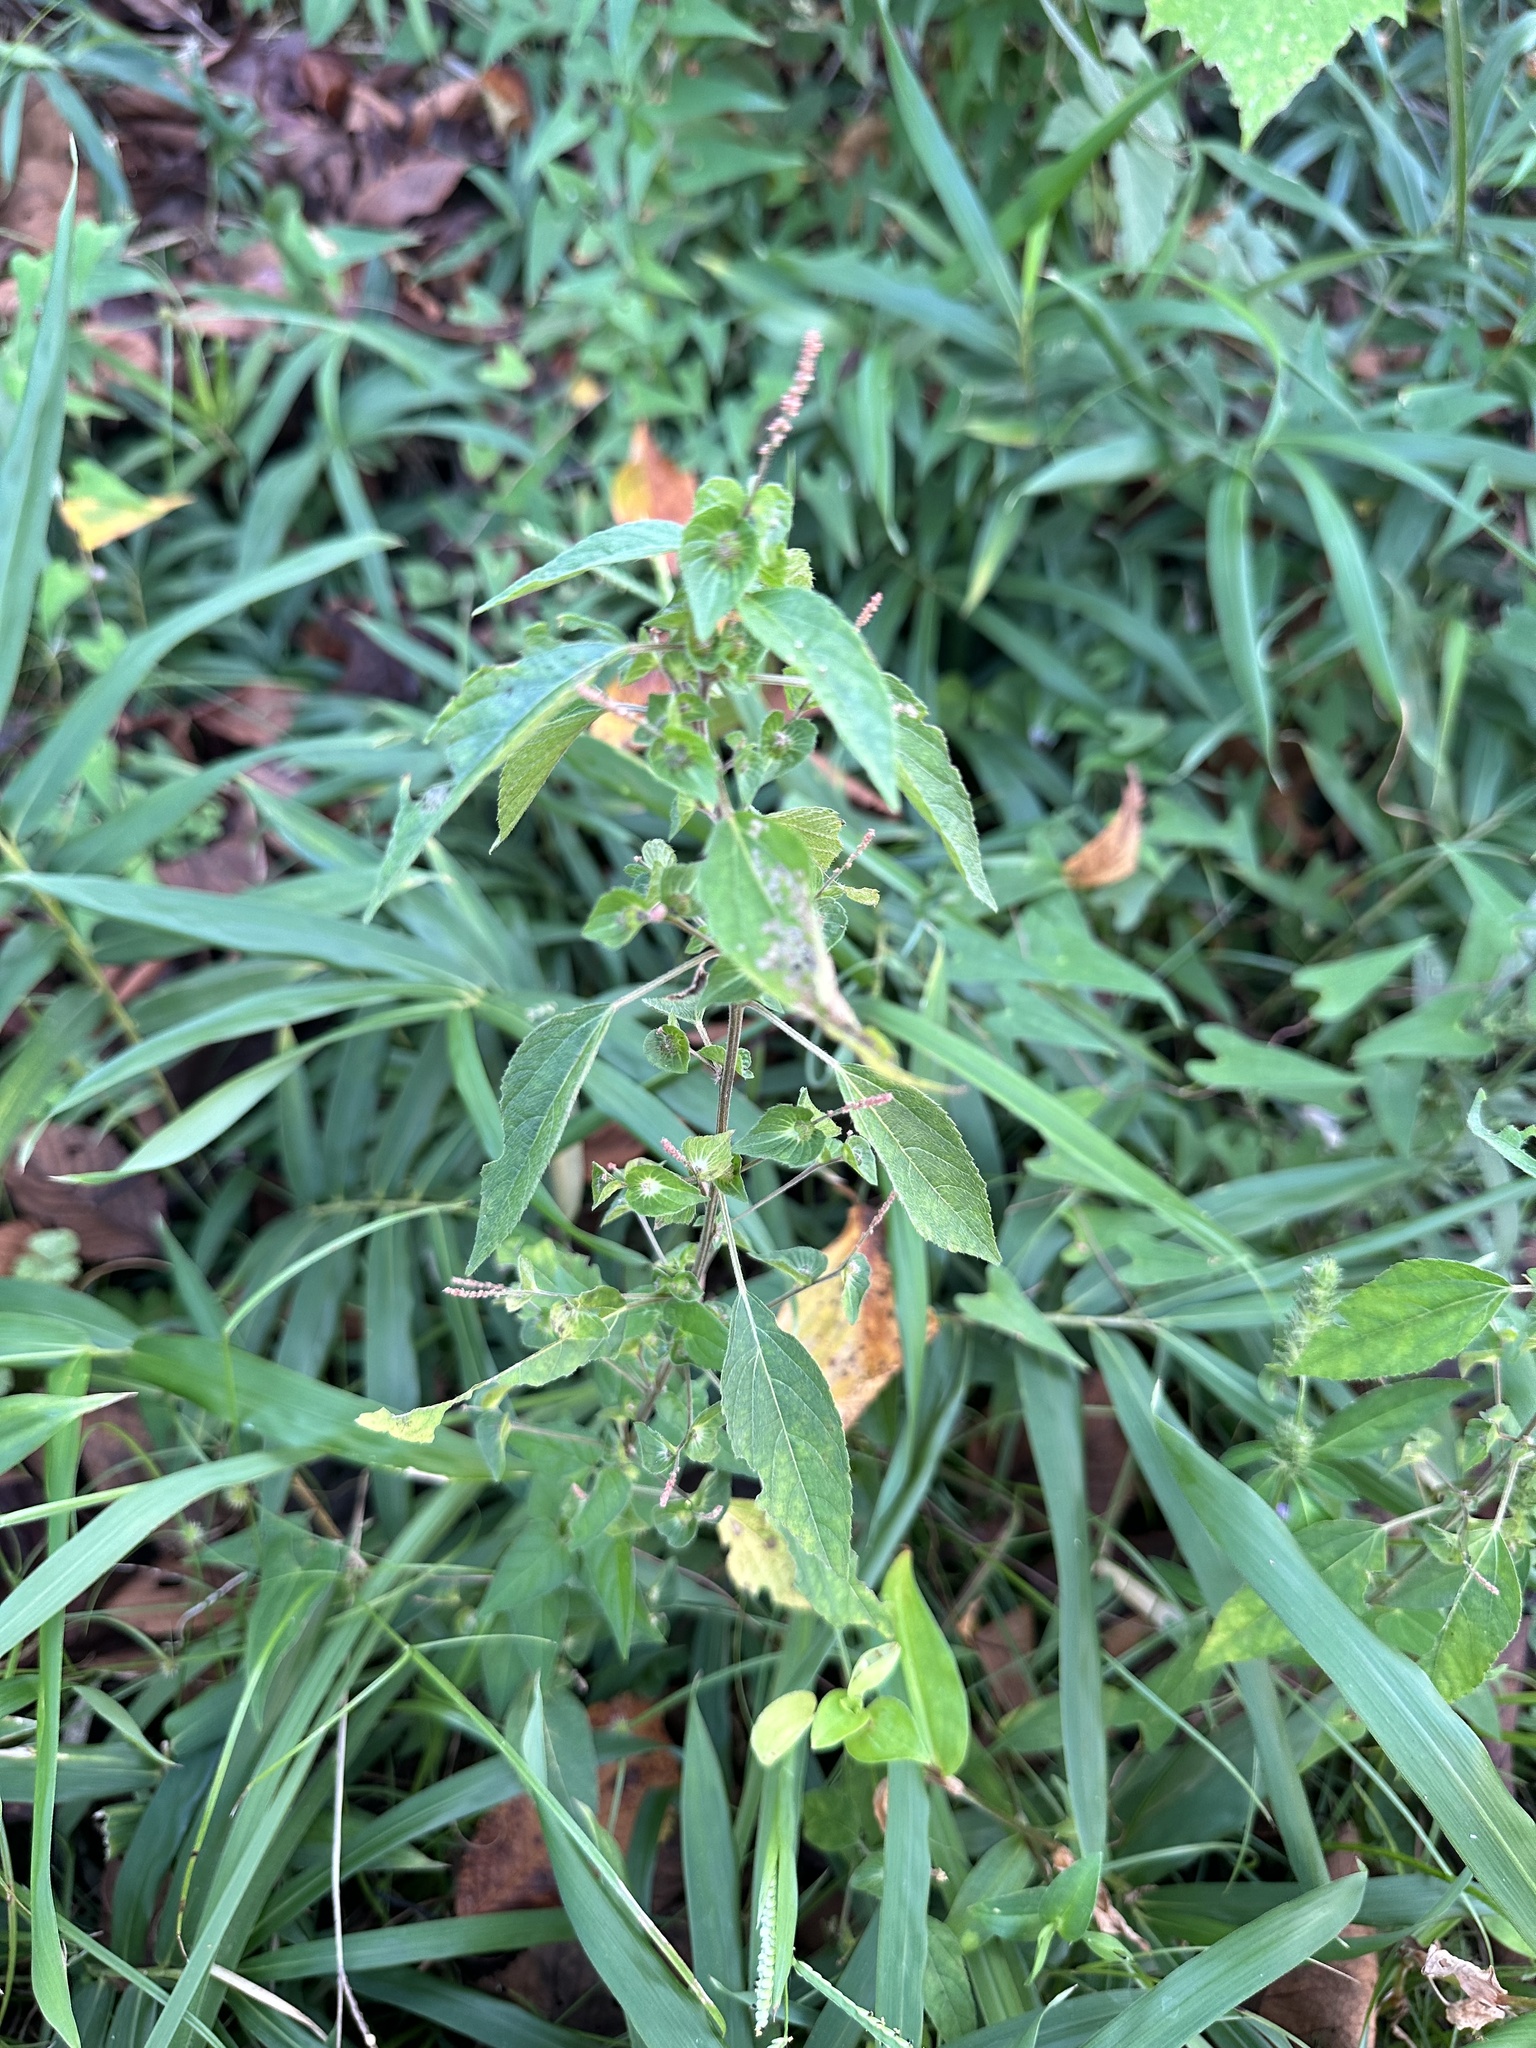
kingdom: Plantae
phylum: Tracheophyta
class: Magnoliopsida
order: Malpighiales
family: Euphorbiaceae
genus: Acalypha
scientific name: Acalypha australis
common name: Asian copperleaf
